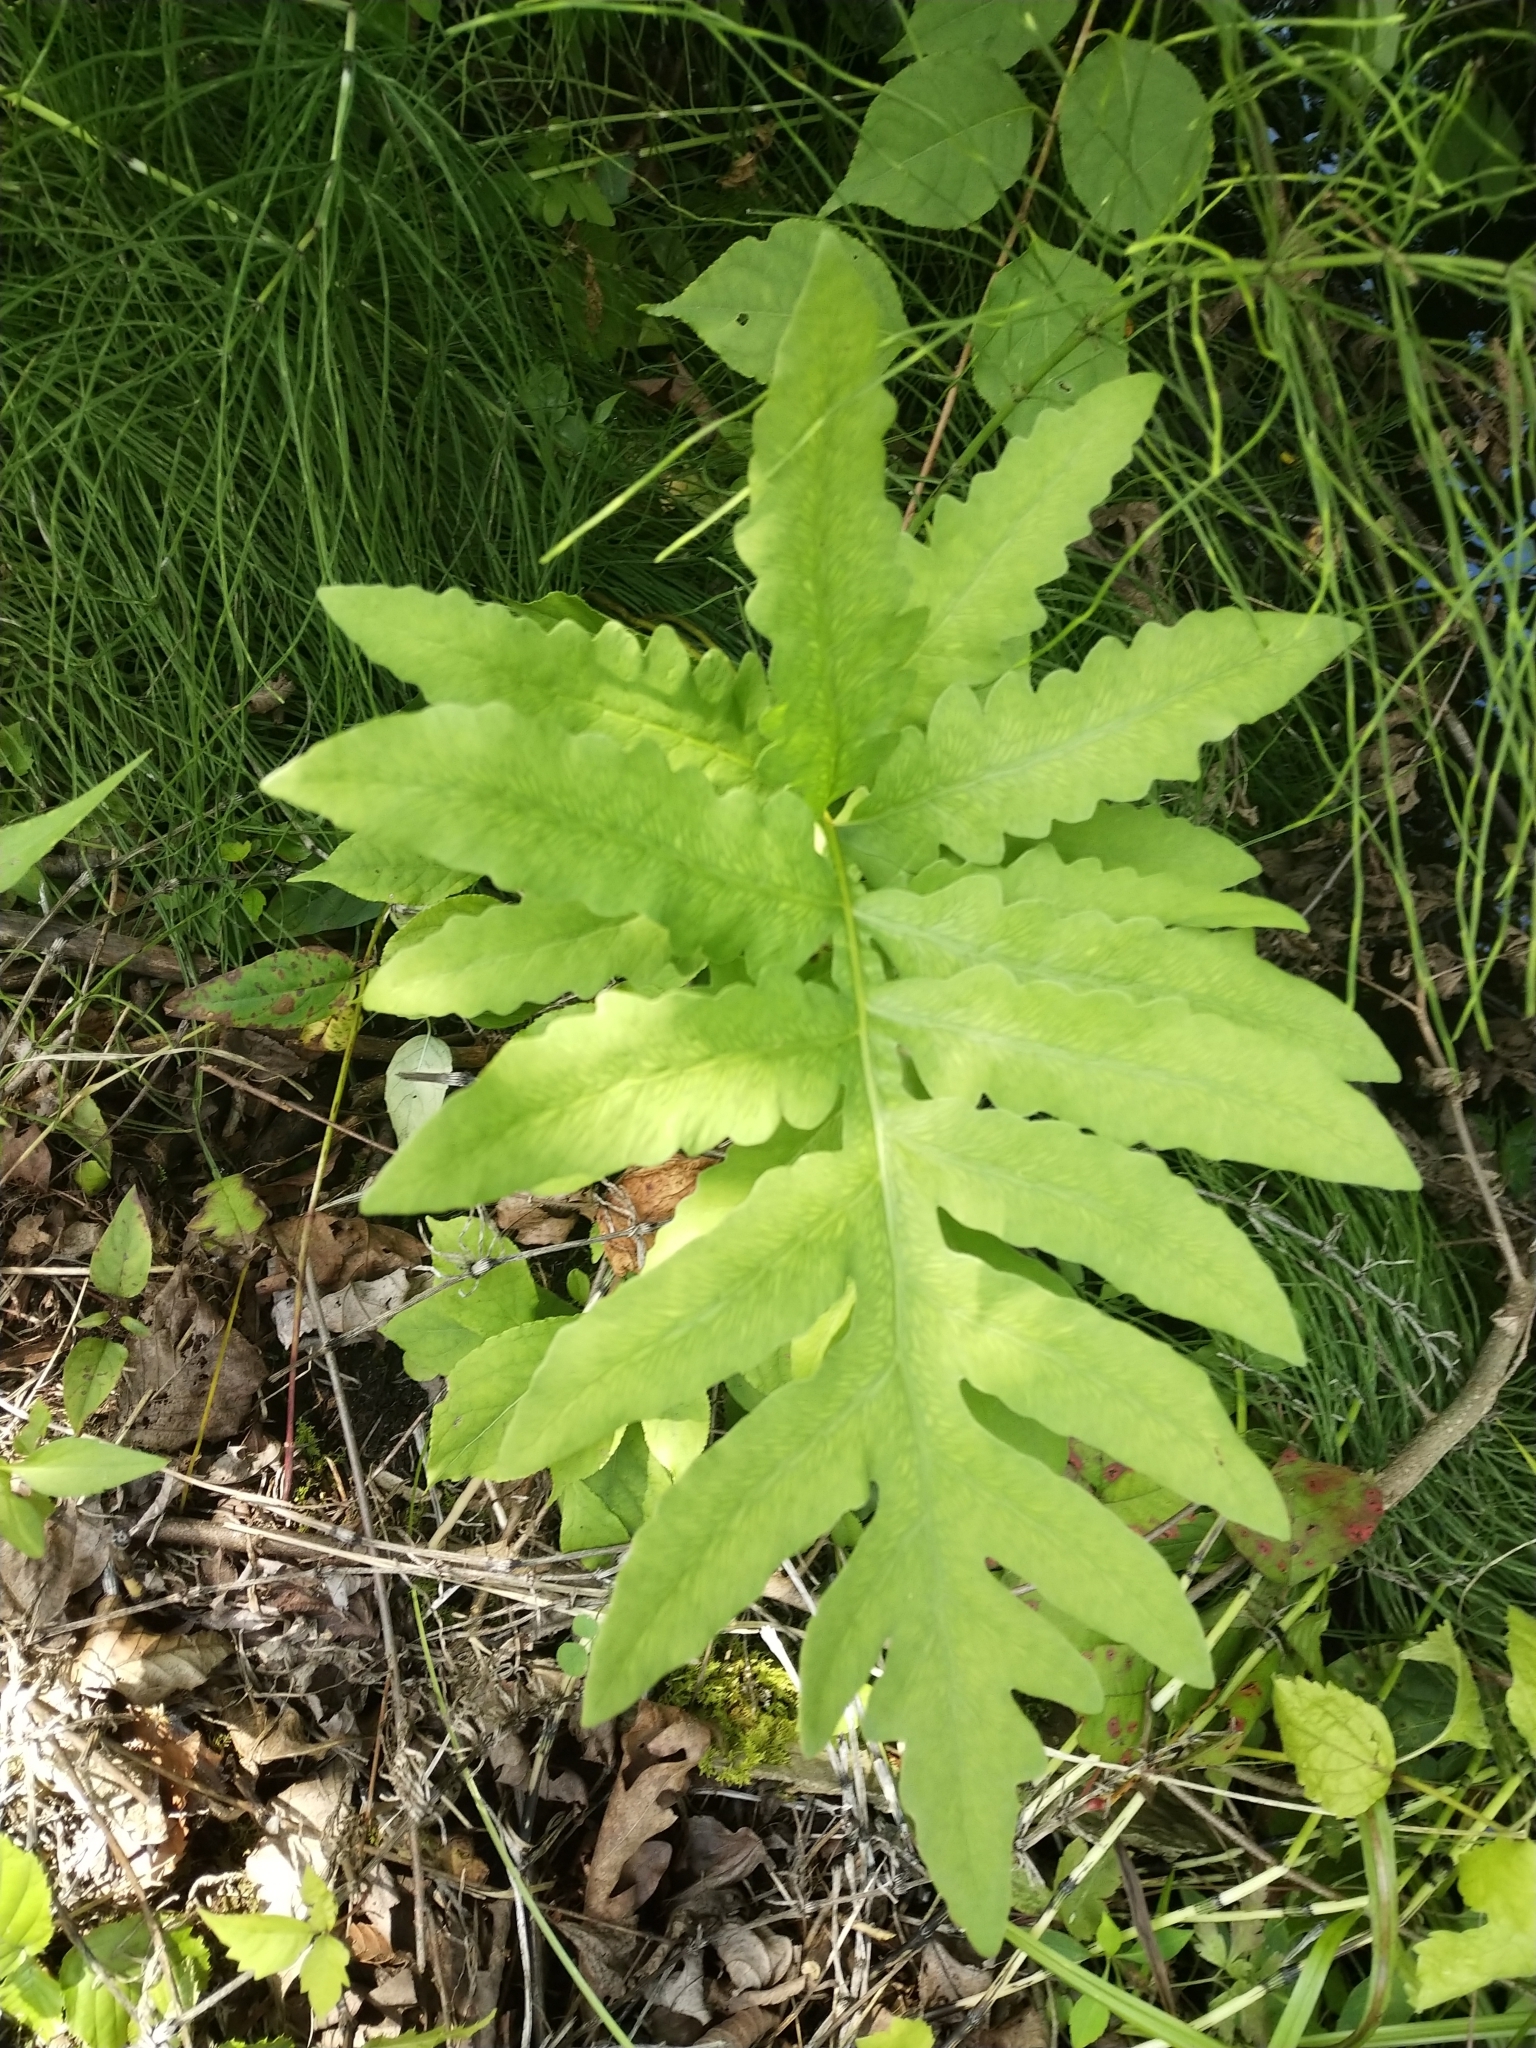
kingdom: Plantae
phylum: Tracheophyta
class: Polypodiopsida
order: Polypodiales
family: Onocleaceae
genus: Onoclea
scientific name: Onoclea sensibilis
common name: Sensitive fern
